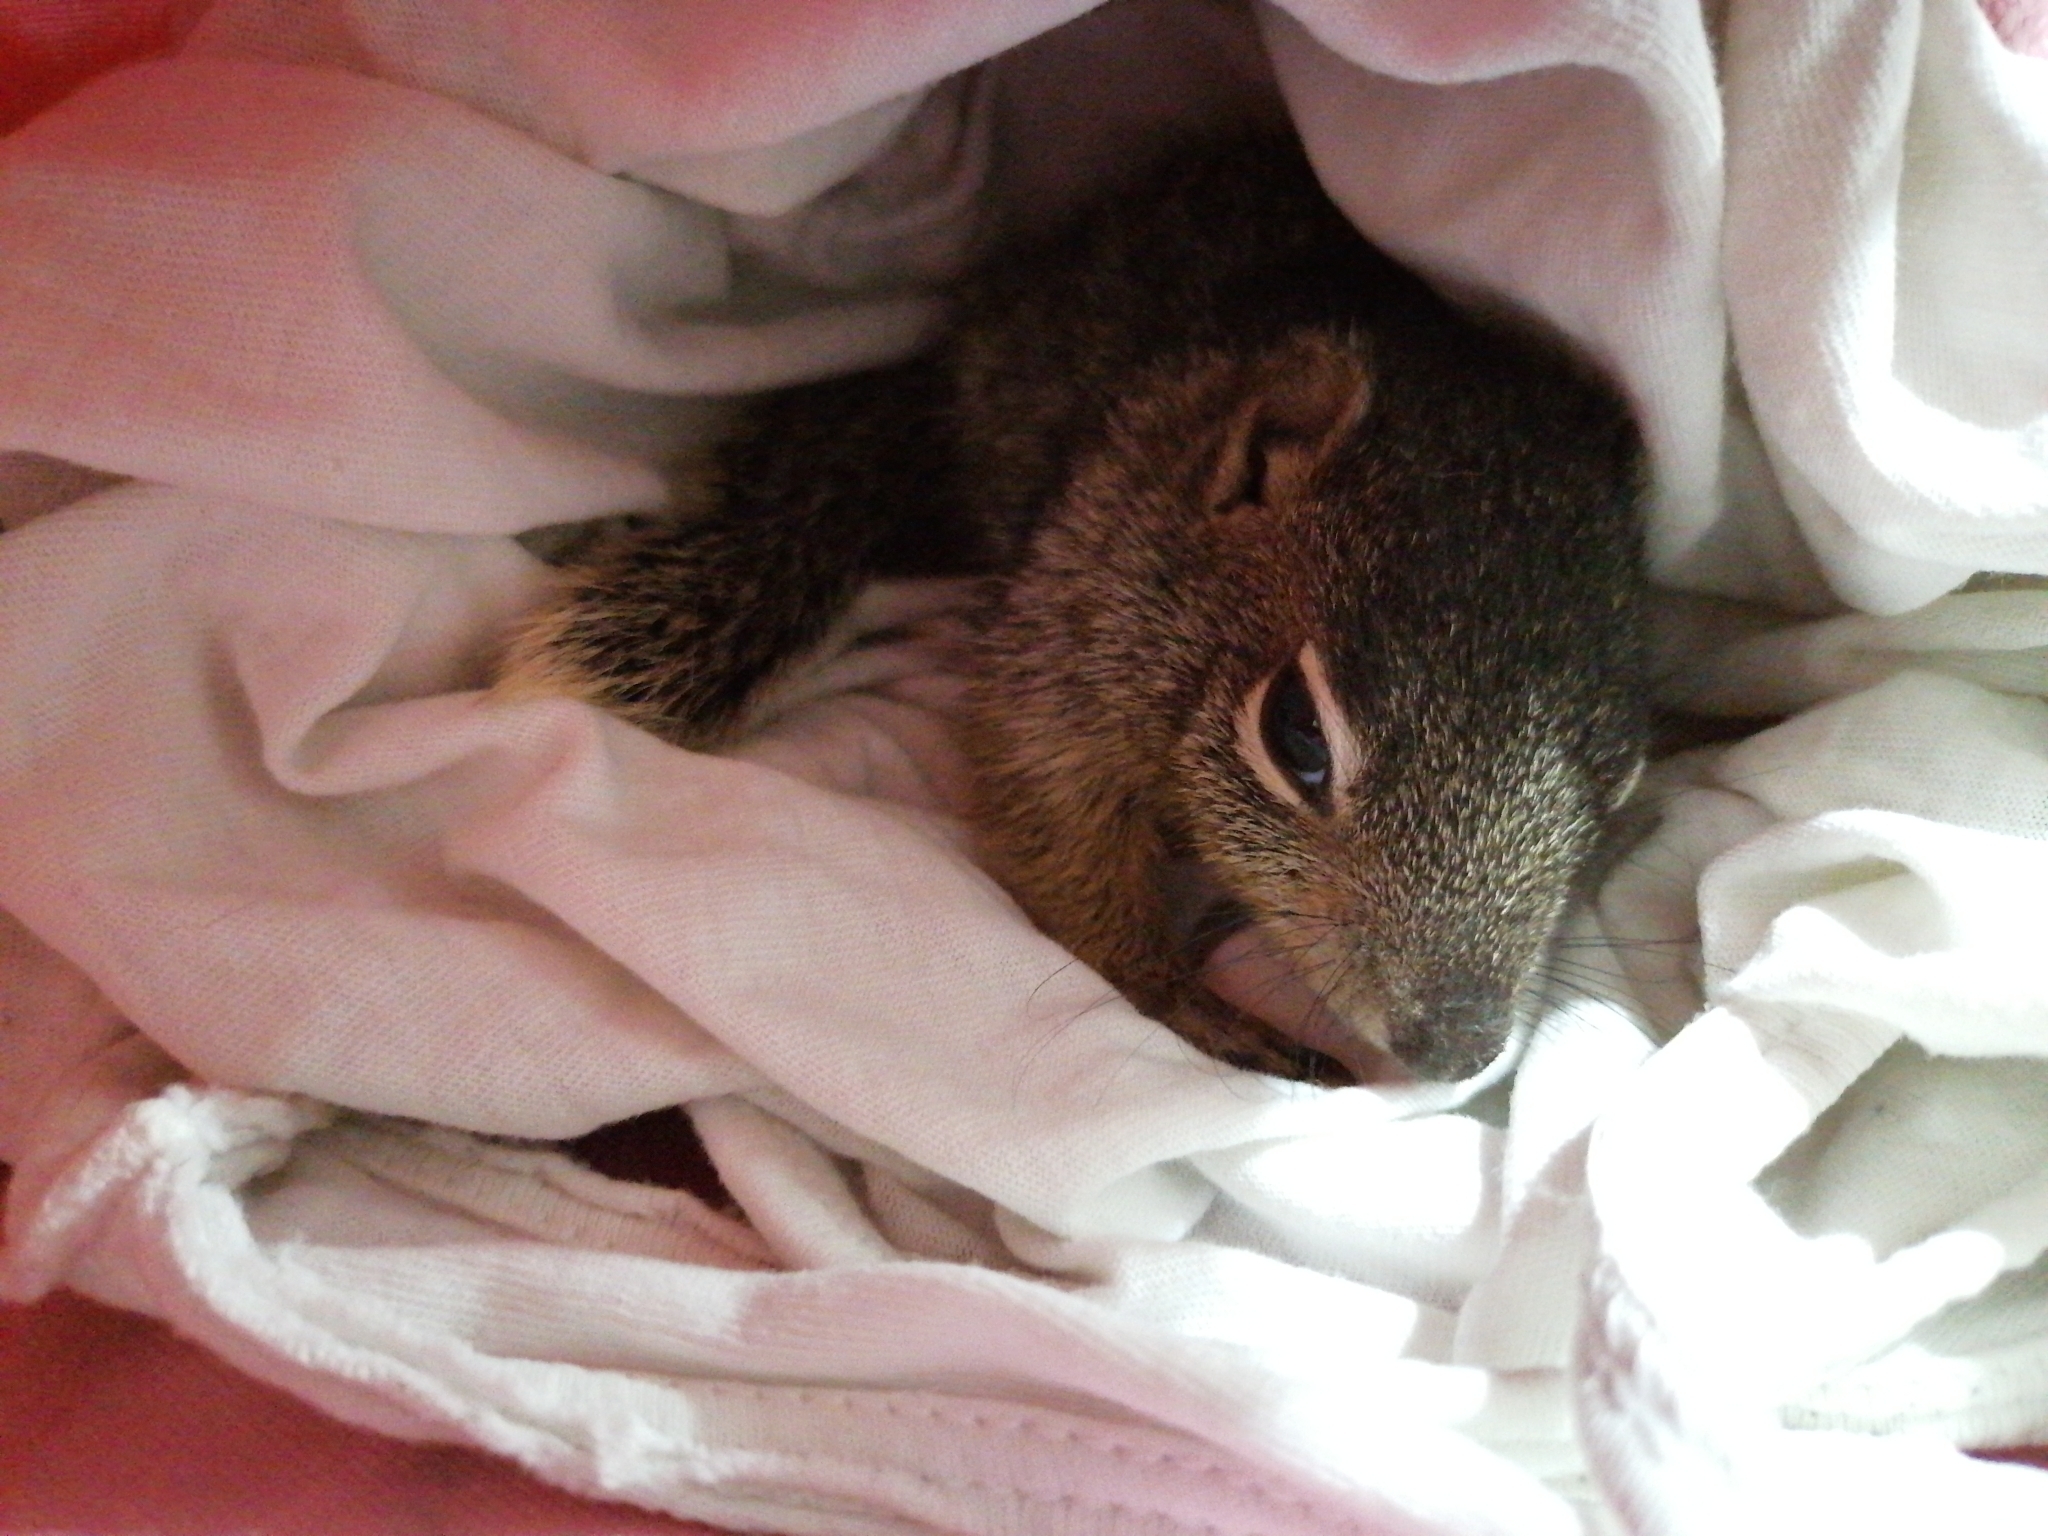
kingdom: Animalia
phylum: Chordata
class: Mammalia
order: Rodentia
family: Sciuridae
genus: Otospermophilus
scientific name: Otospermophilus variegatus
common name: Rock squirrel
